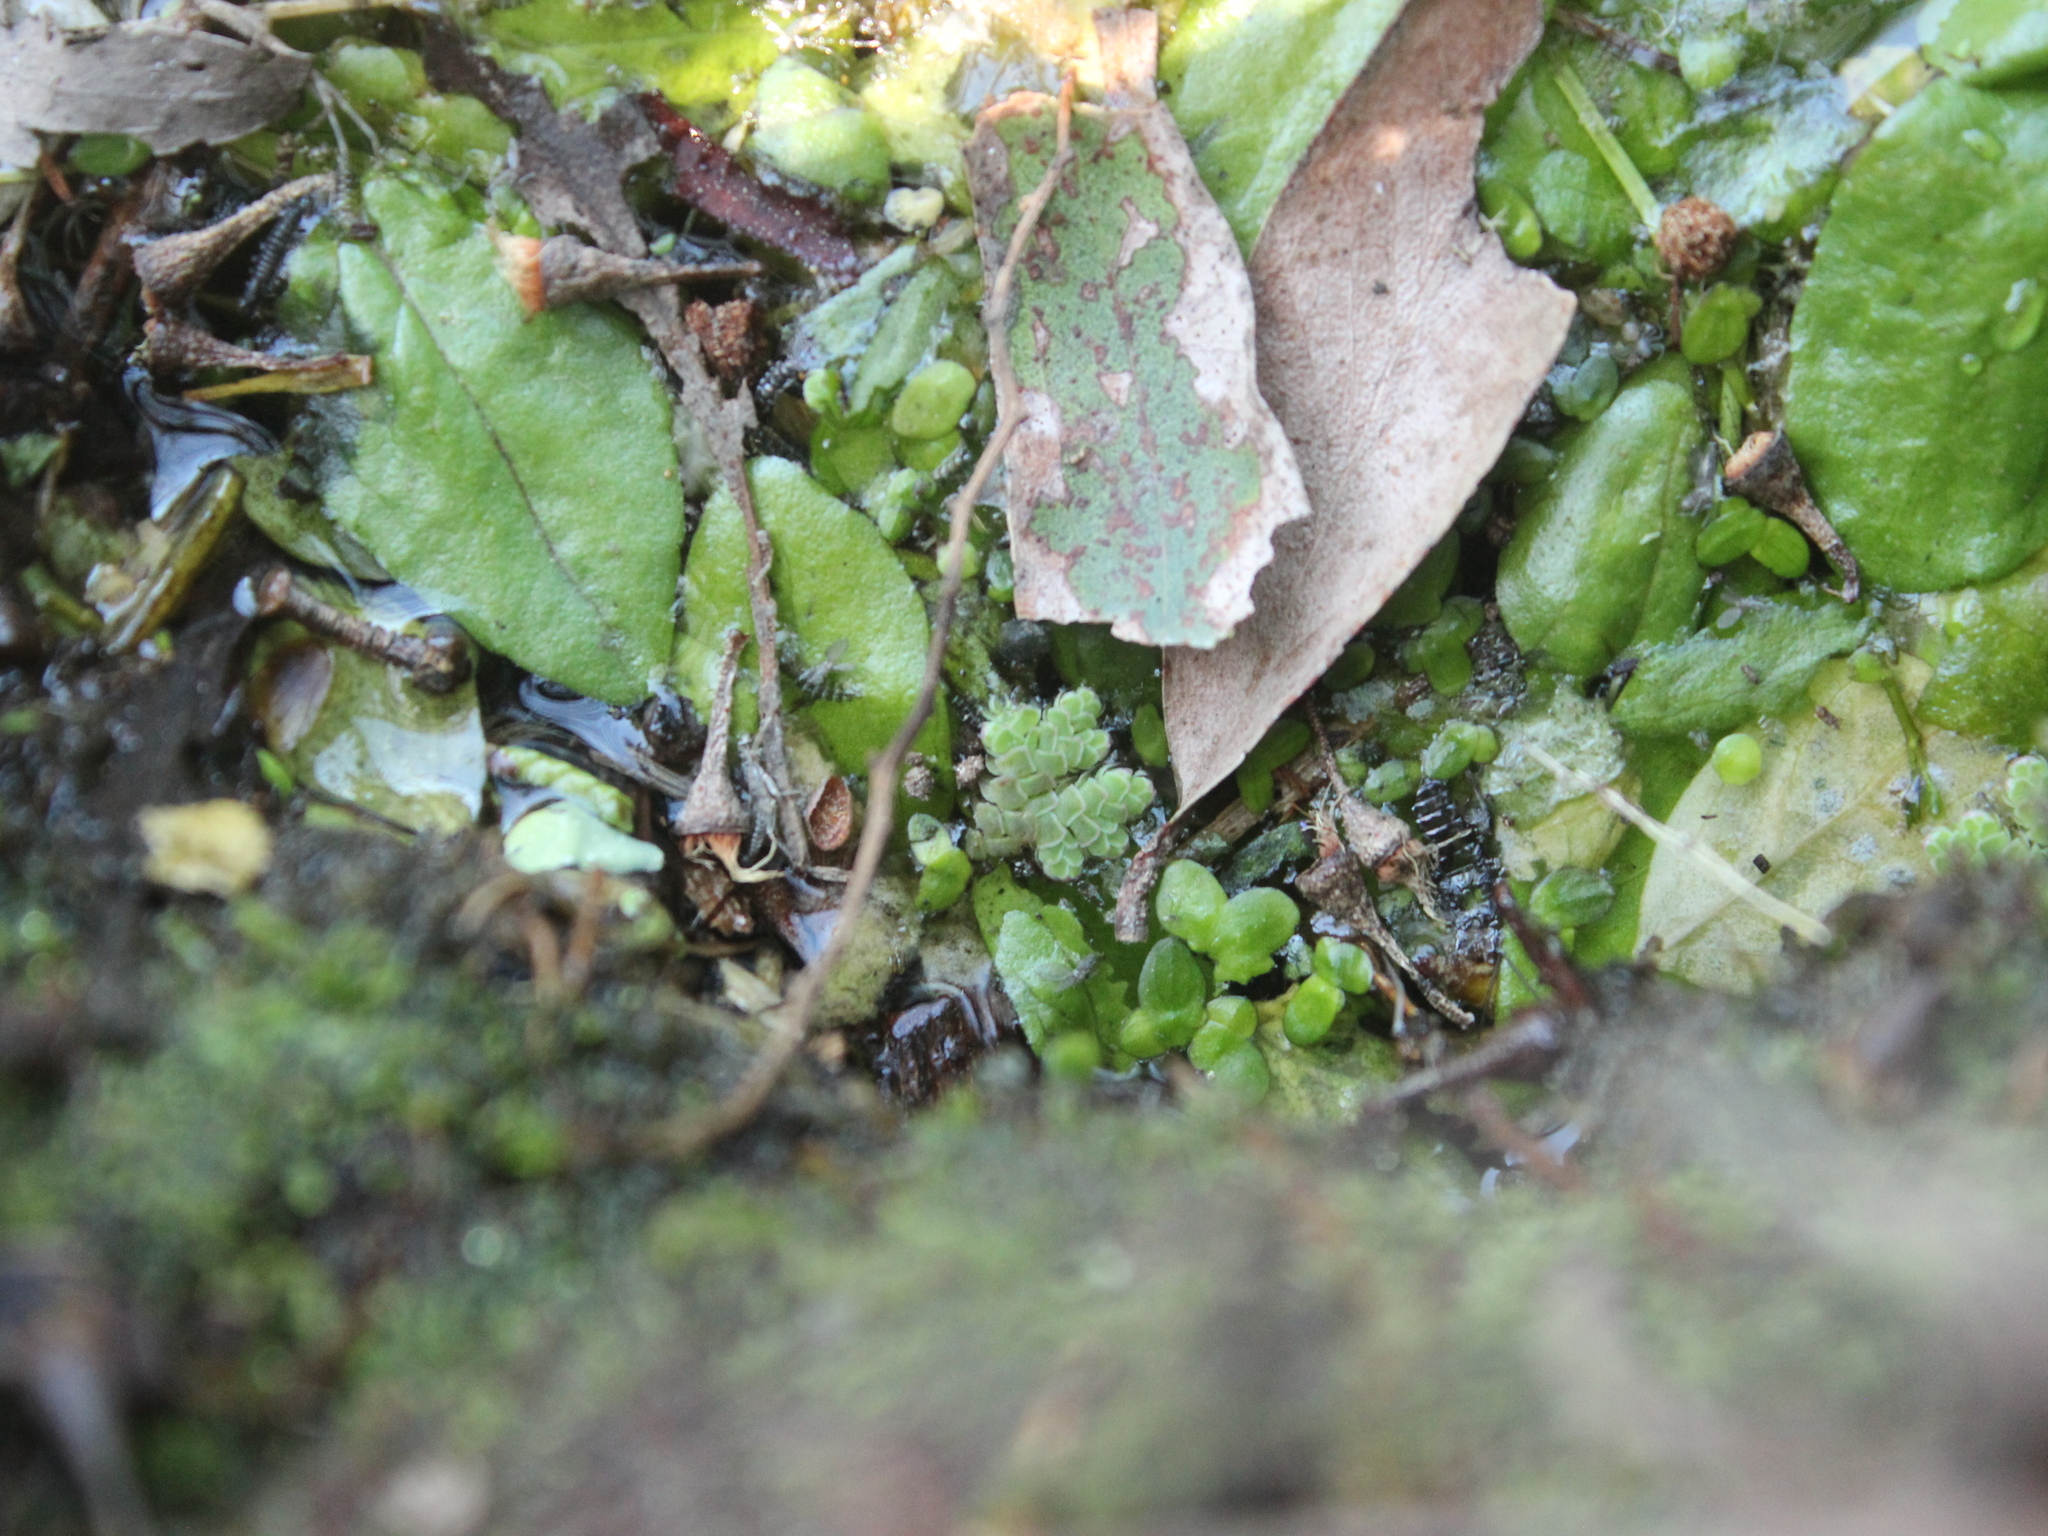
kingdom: Plantae
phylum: Tracheophyta
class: Polypodiopsida
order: Salviniales
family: Salviniaceae
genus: Azolla
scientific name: Azolla rubra
